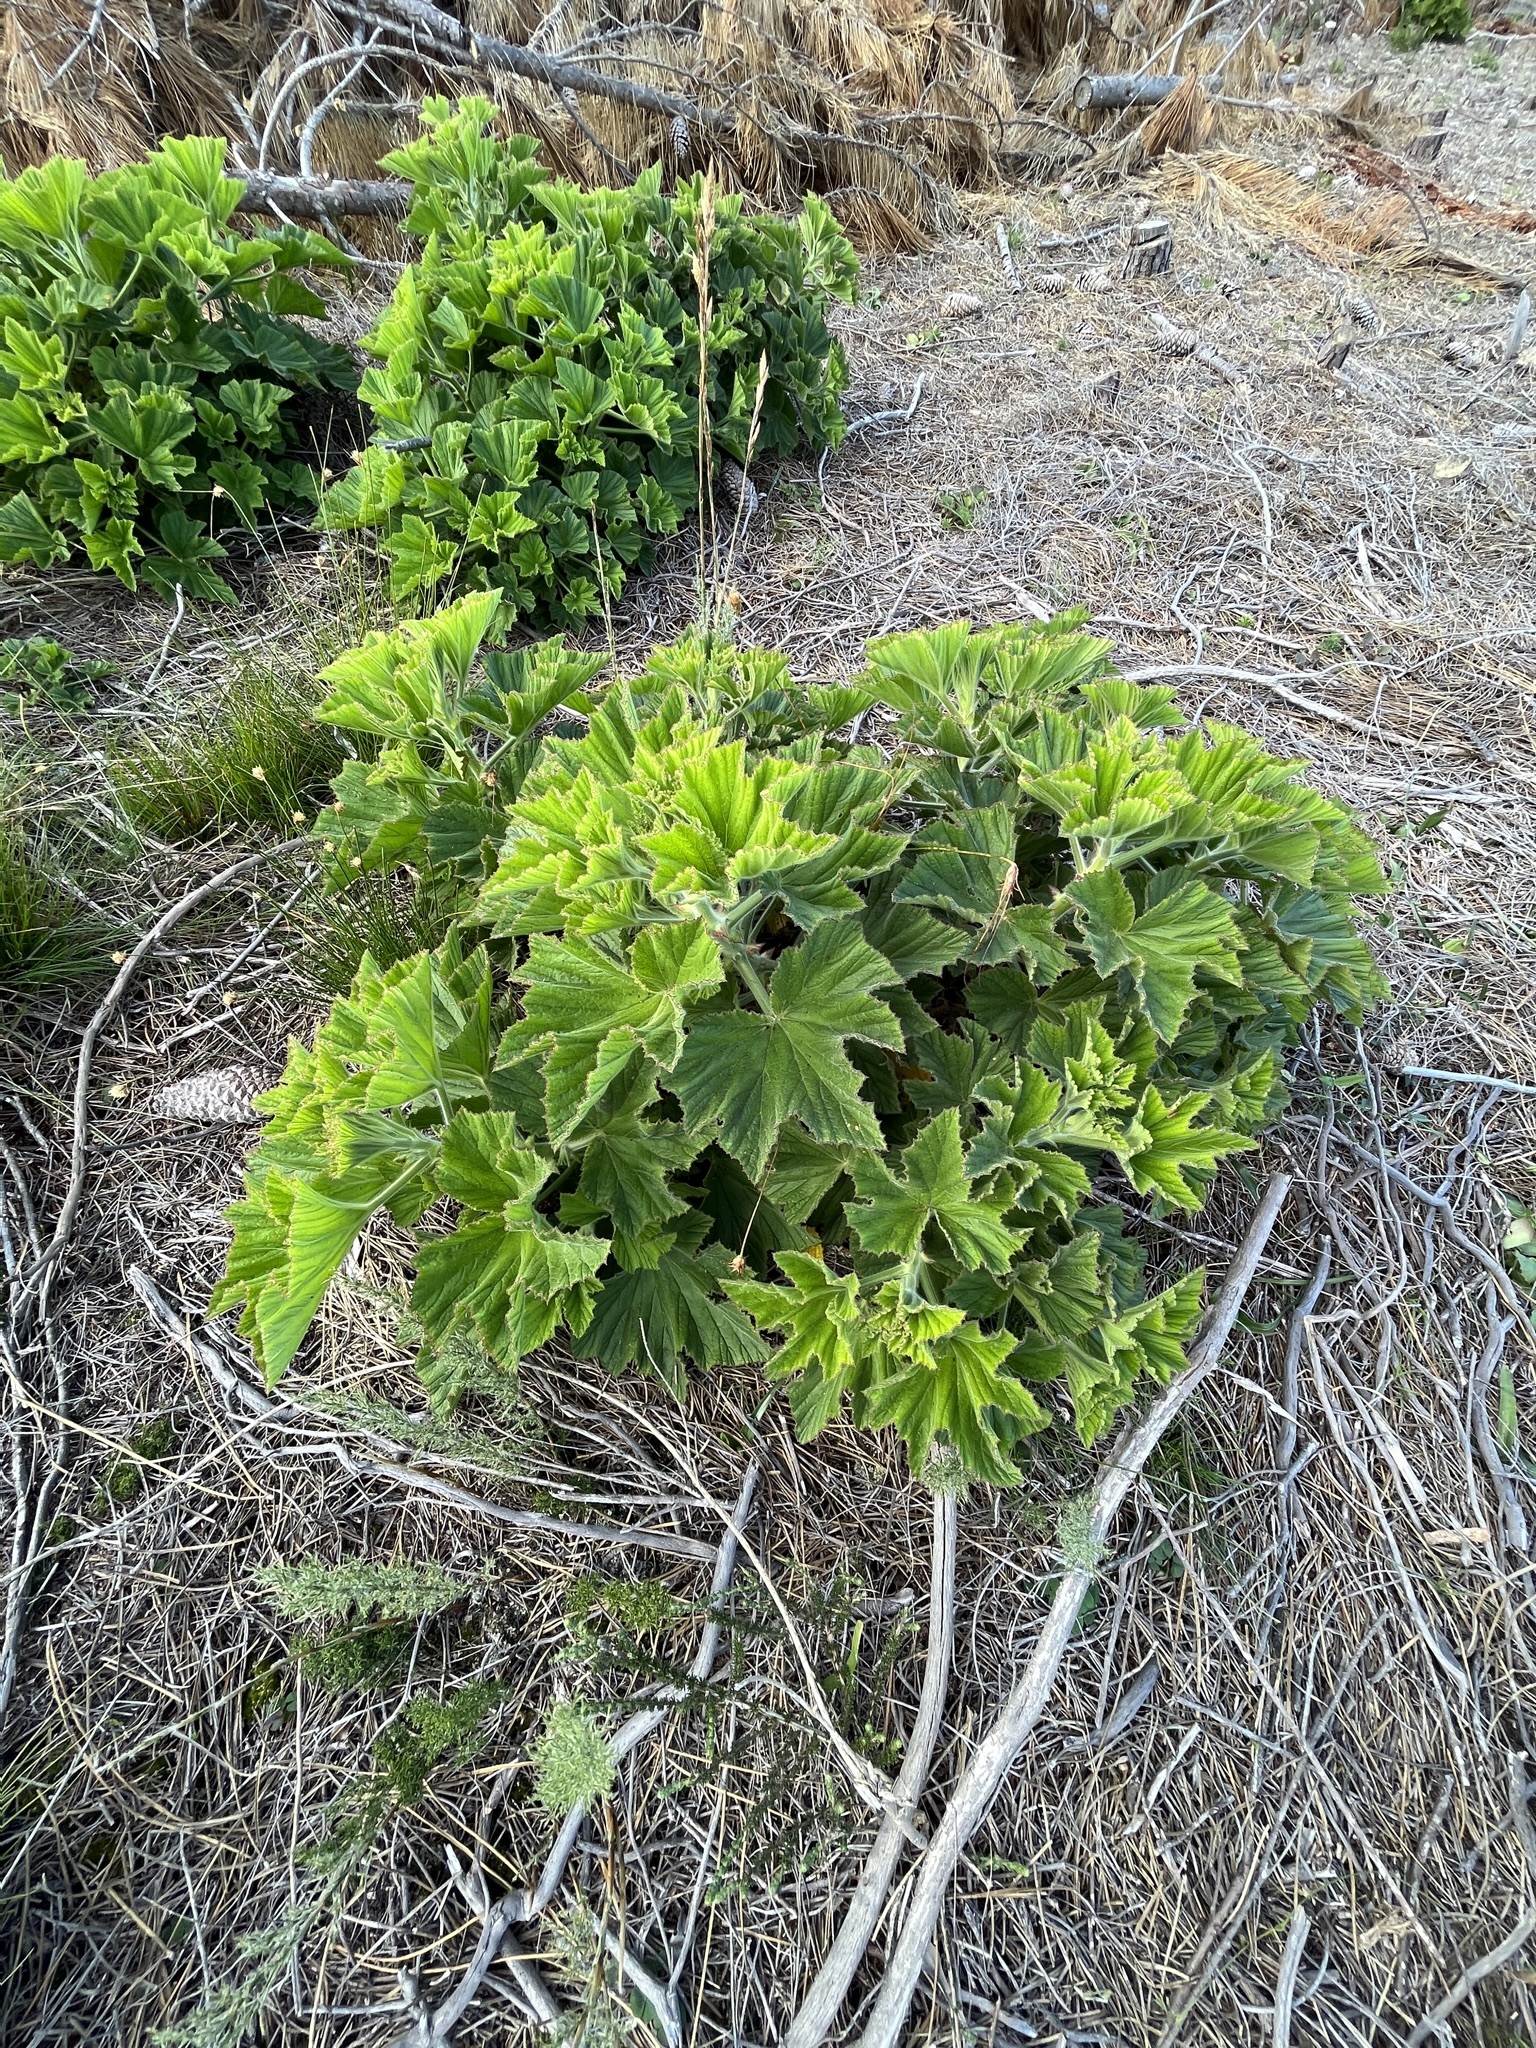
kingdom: Plantae
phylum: Tracheophyta
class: Magnoliopsida
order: Geraniales
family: Geraniaceae
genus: Pelargonium
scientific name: Pelargonium cucullatum
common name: Tree pelargonium
